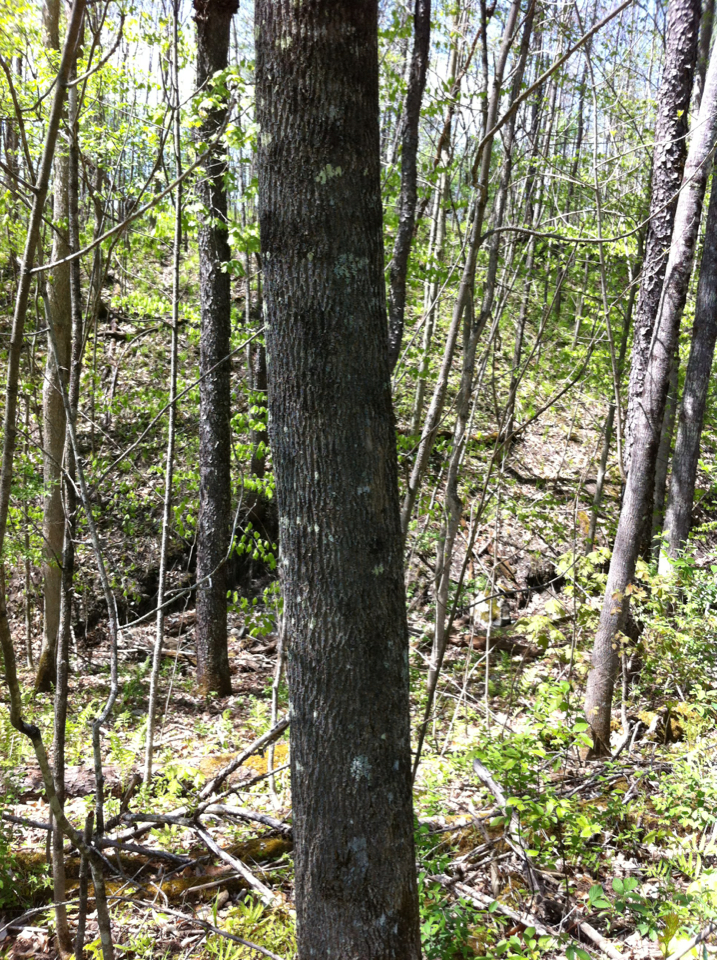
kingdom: Plantae
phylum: Tracheophyta
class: Magnoliopsida
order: Lamiales
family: Oleaceae
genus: Fraxinus
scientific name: Fraxinus americana
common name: White ash
